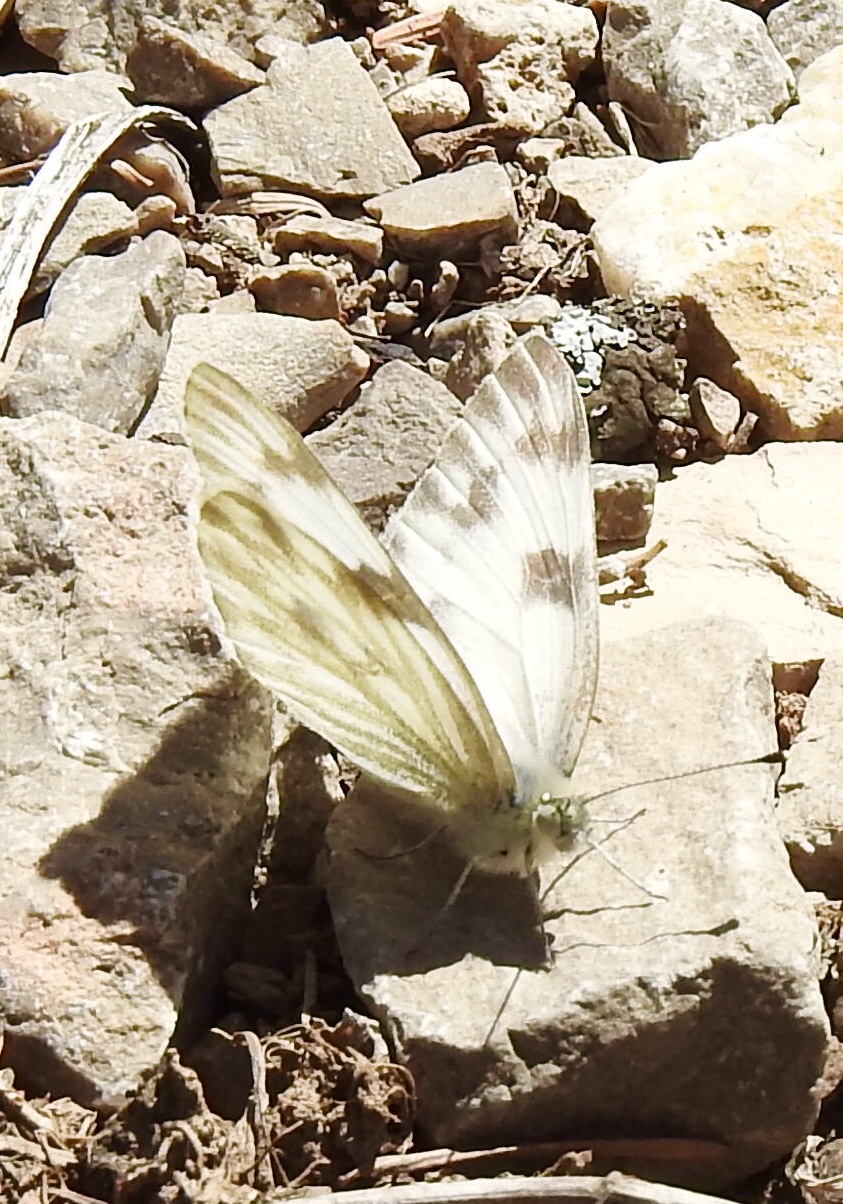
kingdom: Animalia
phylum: Arthropoda
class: Insecta
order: Lepidoptera
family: Pieridae
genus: Pontia
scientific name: Pontia protodice
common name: Checkered white
